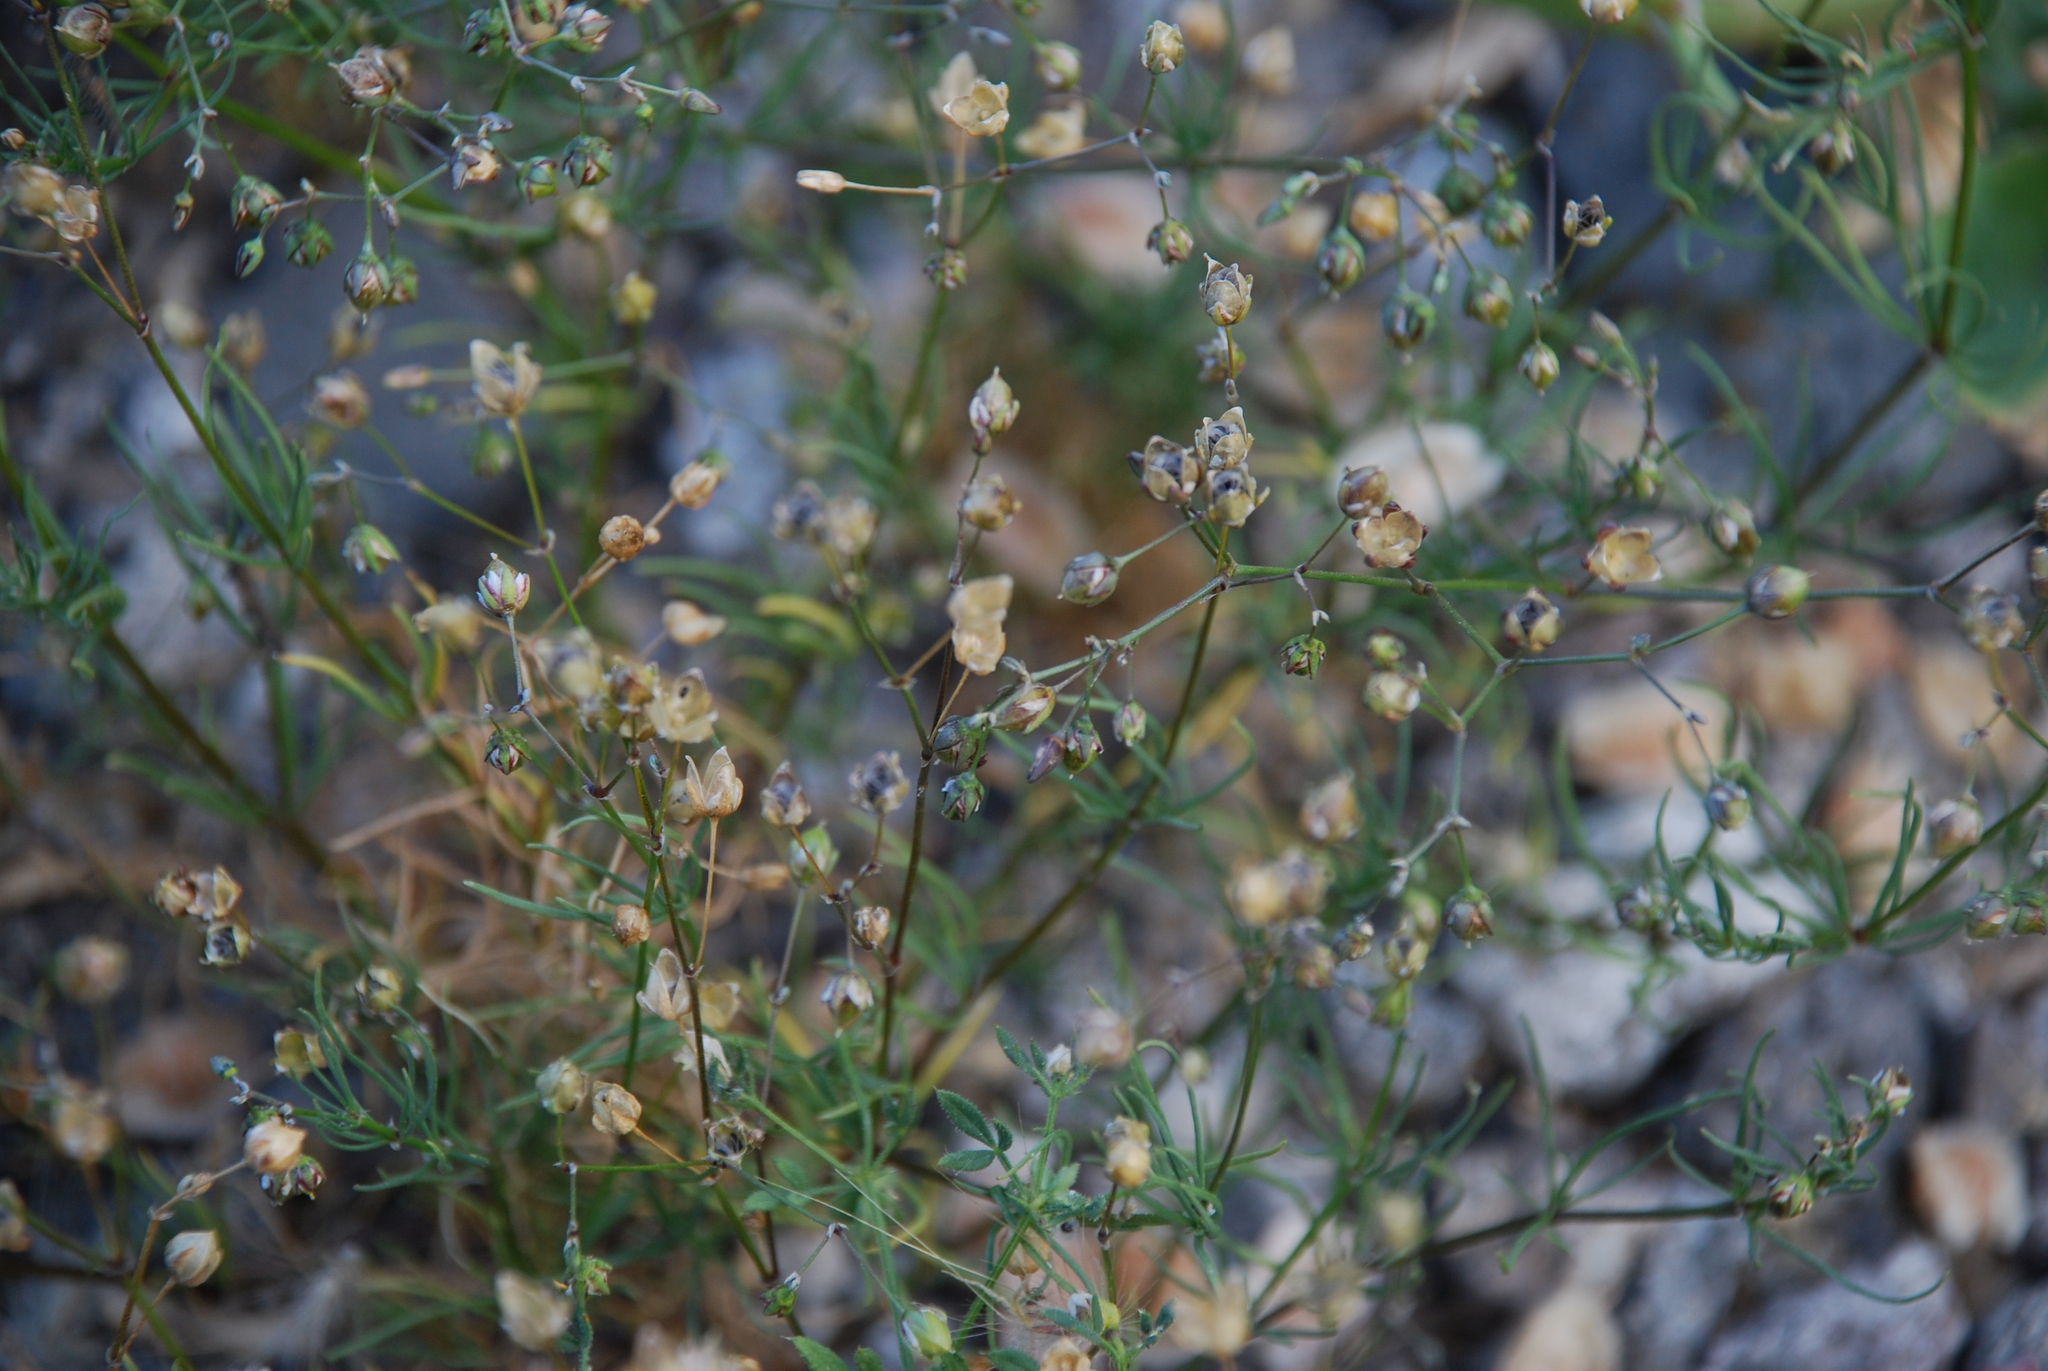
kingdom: Plantae
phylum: Tracheophyta
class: Magnoliopsida
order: Caryophyllales
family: Caryophyllaceae
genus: Spergula
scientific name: Spergula arvensis
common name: Corn spurrey
